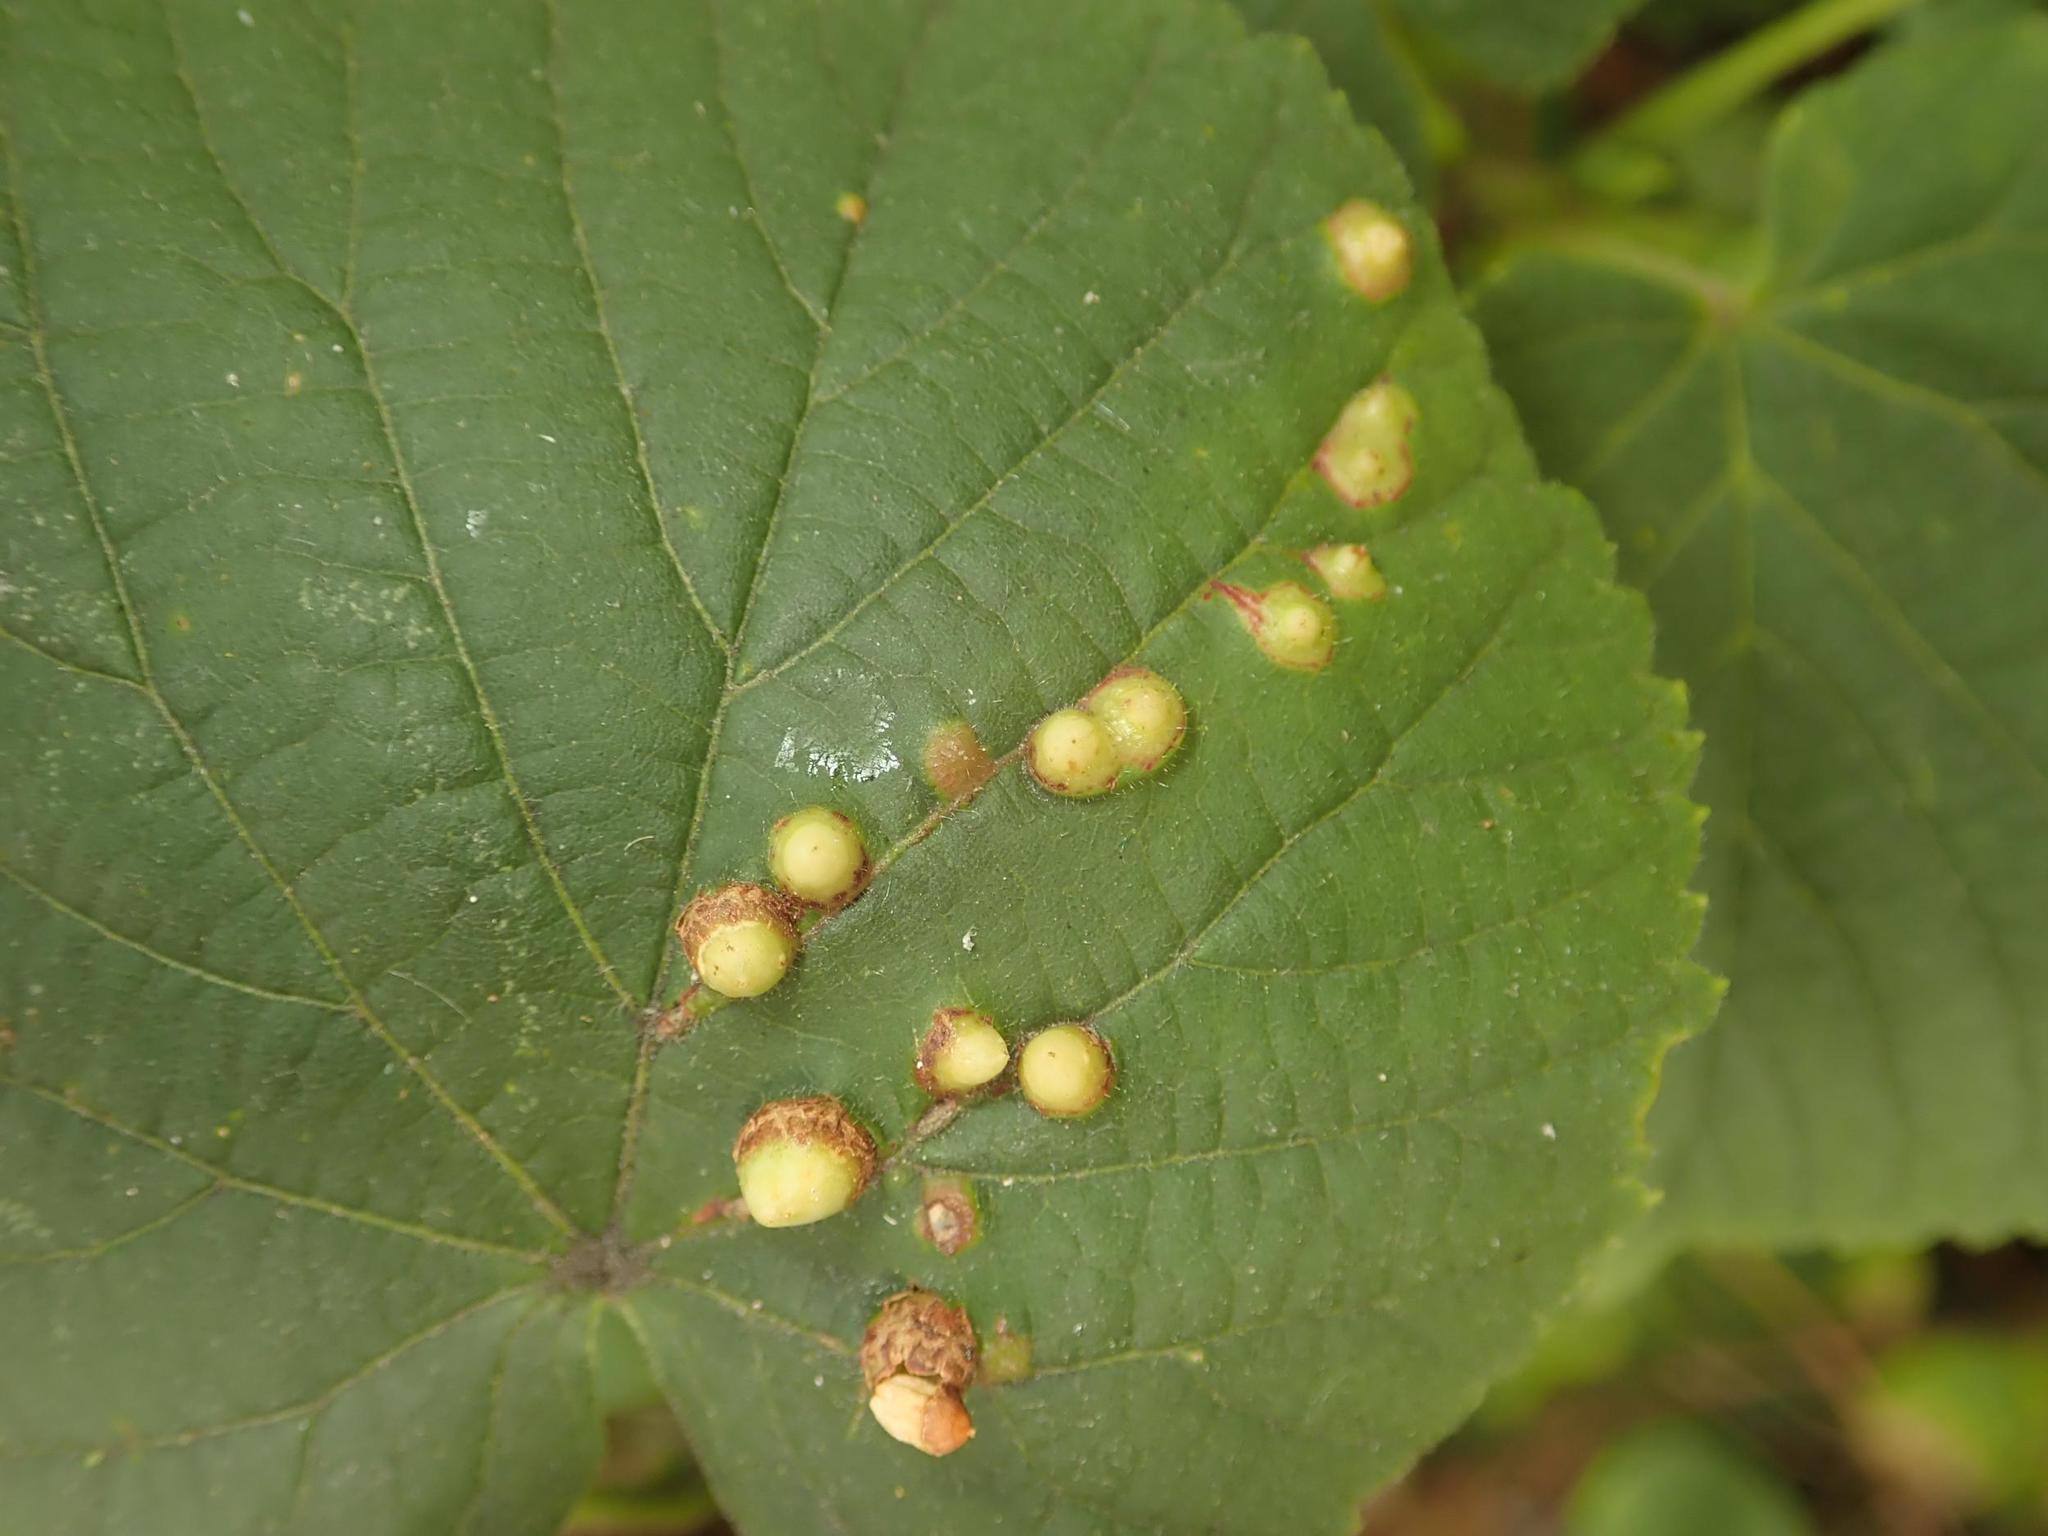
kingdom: Animalia
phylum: Arthropoda
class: Insecta
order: Diptera
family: Cecidomyiidae
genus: Didymomyia
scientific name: Didymomyia tiliacea
